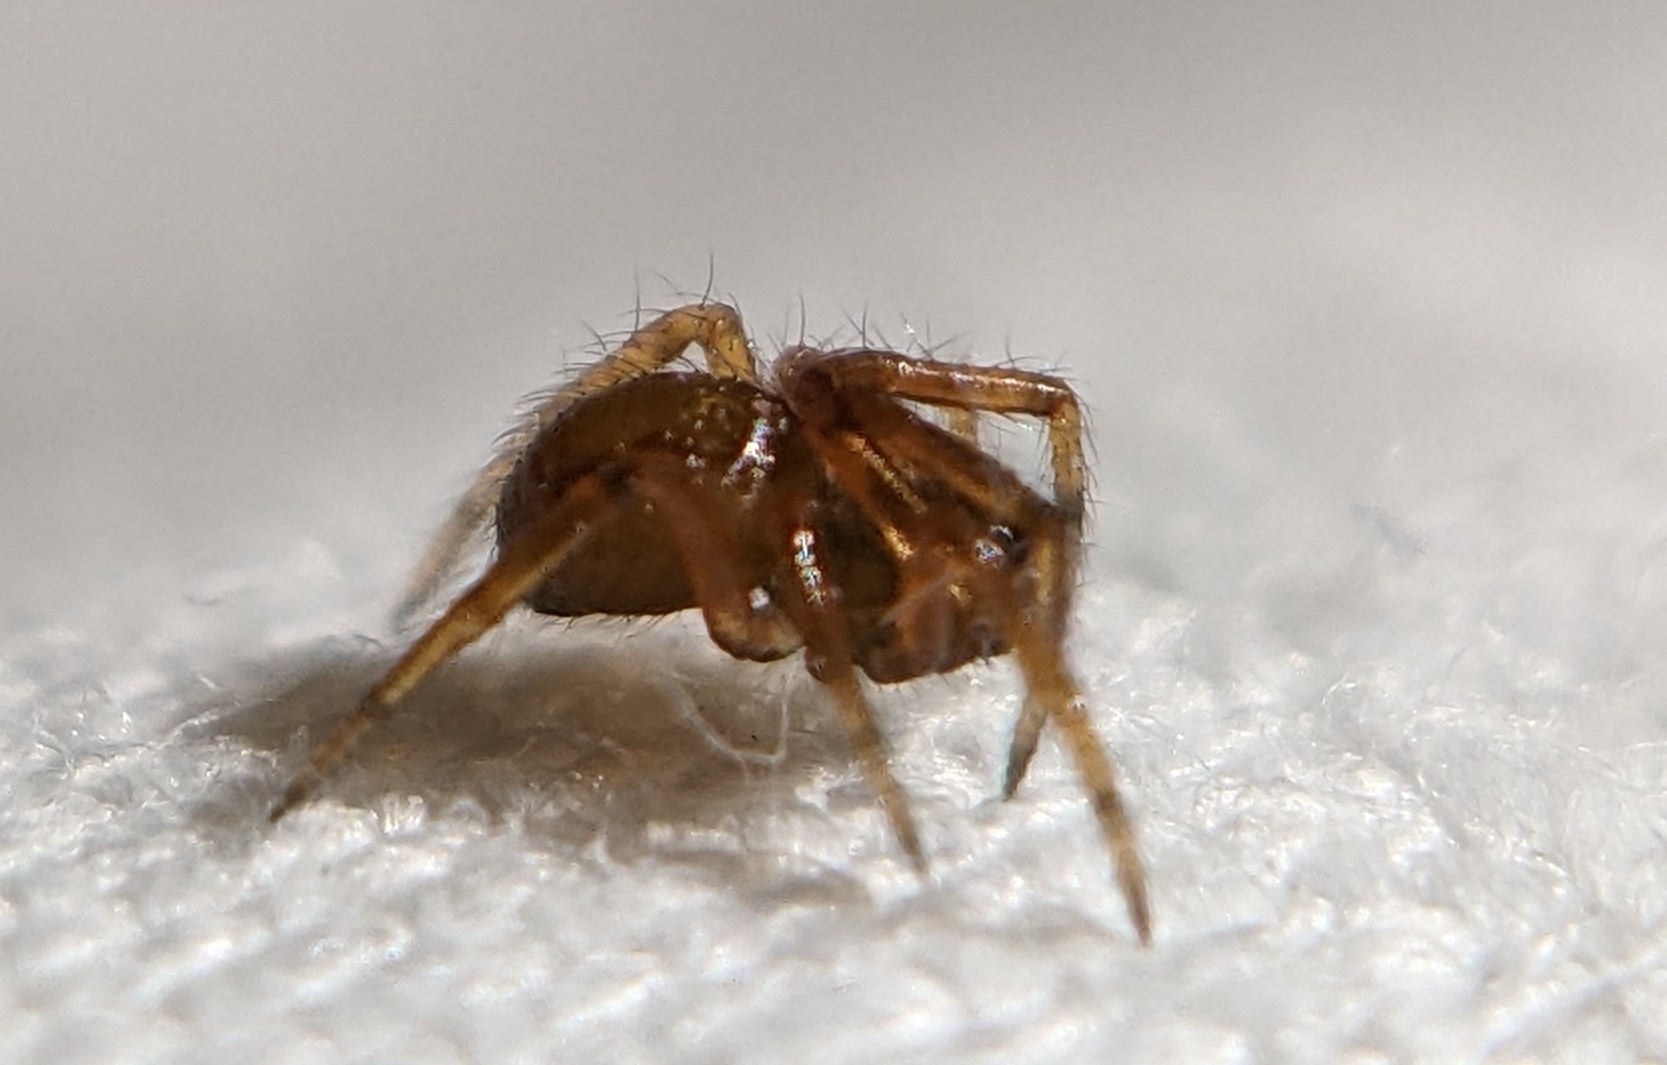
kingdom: Animalia
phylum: Arthropoda
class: Arachnida
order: Araneae
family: Theridiidae
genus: Steatoda
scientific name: Steatoda nobilis
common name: Cobweb weaver
